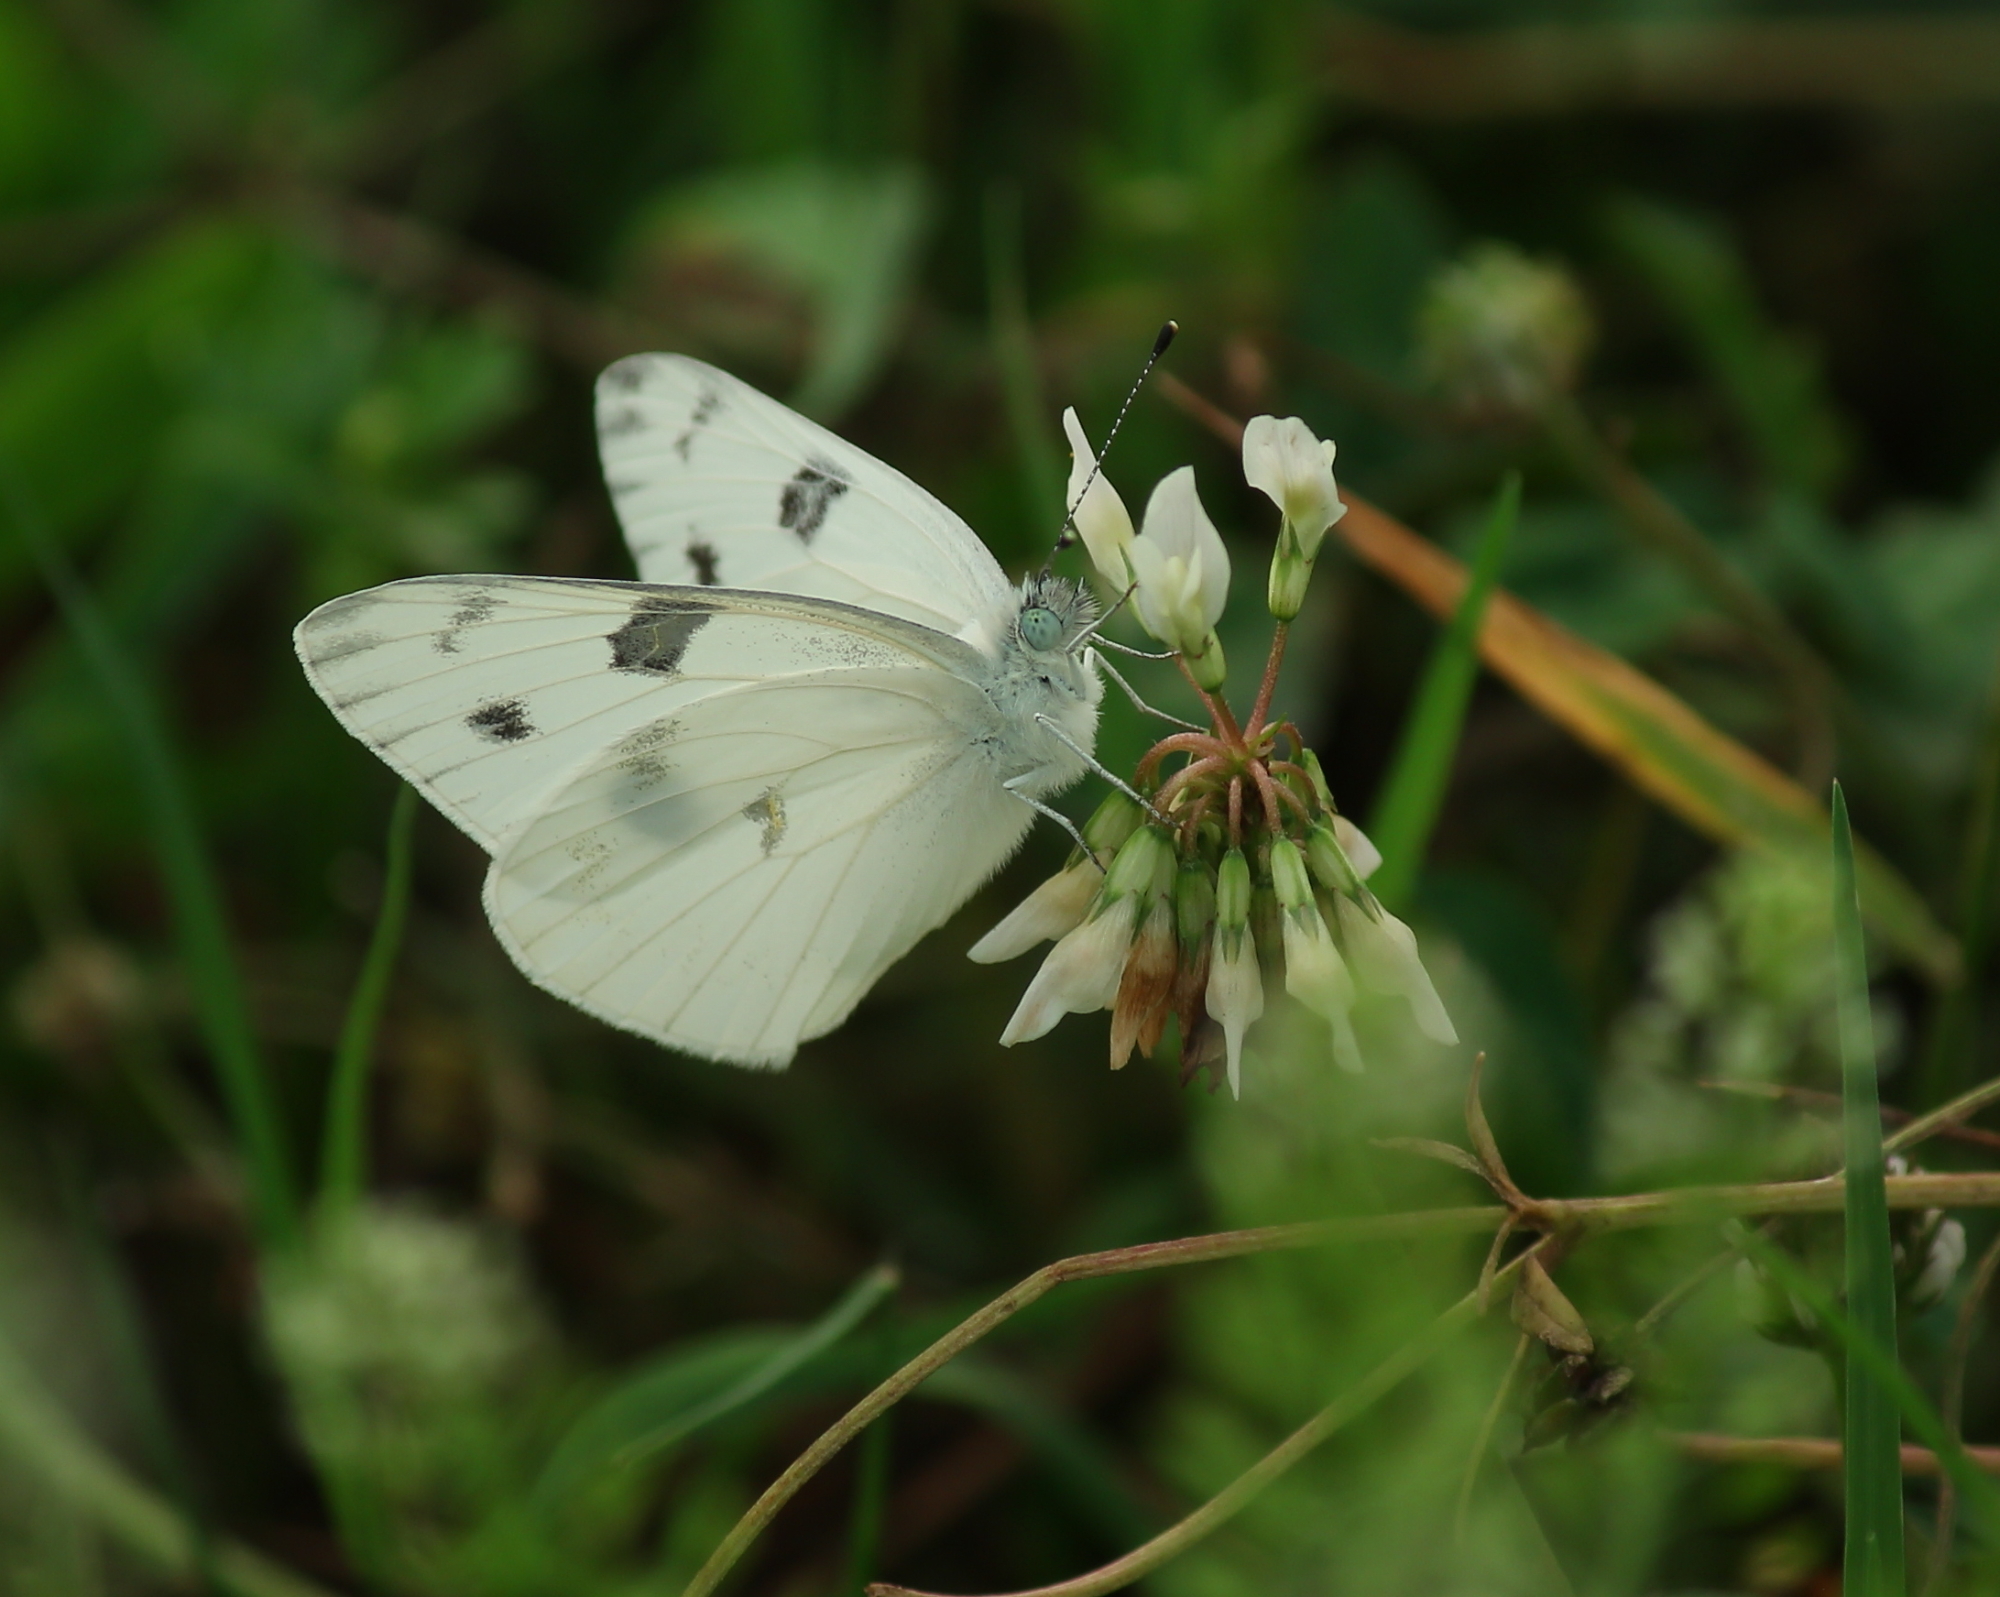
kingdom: Animalia
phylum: Arthropoda
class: Insecta
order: Lepidoptera
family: Pieridae
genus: Pontia
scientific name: Pontia protodice
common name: Checkered white
